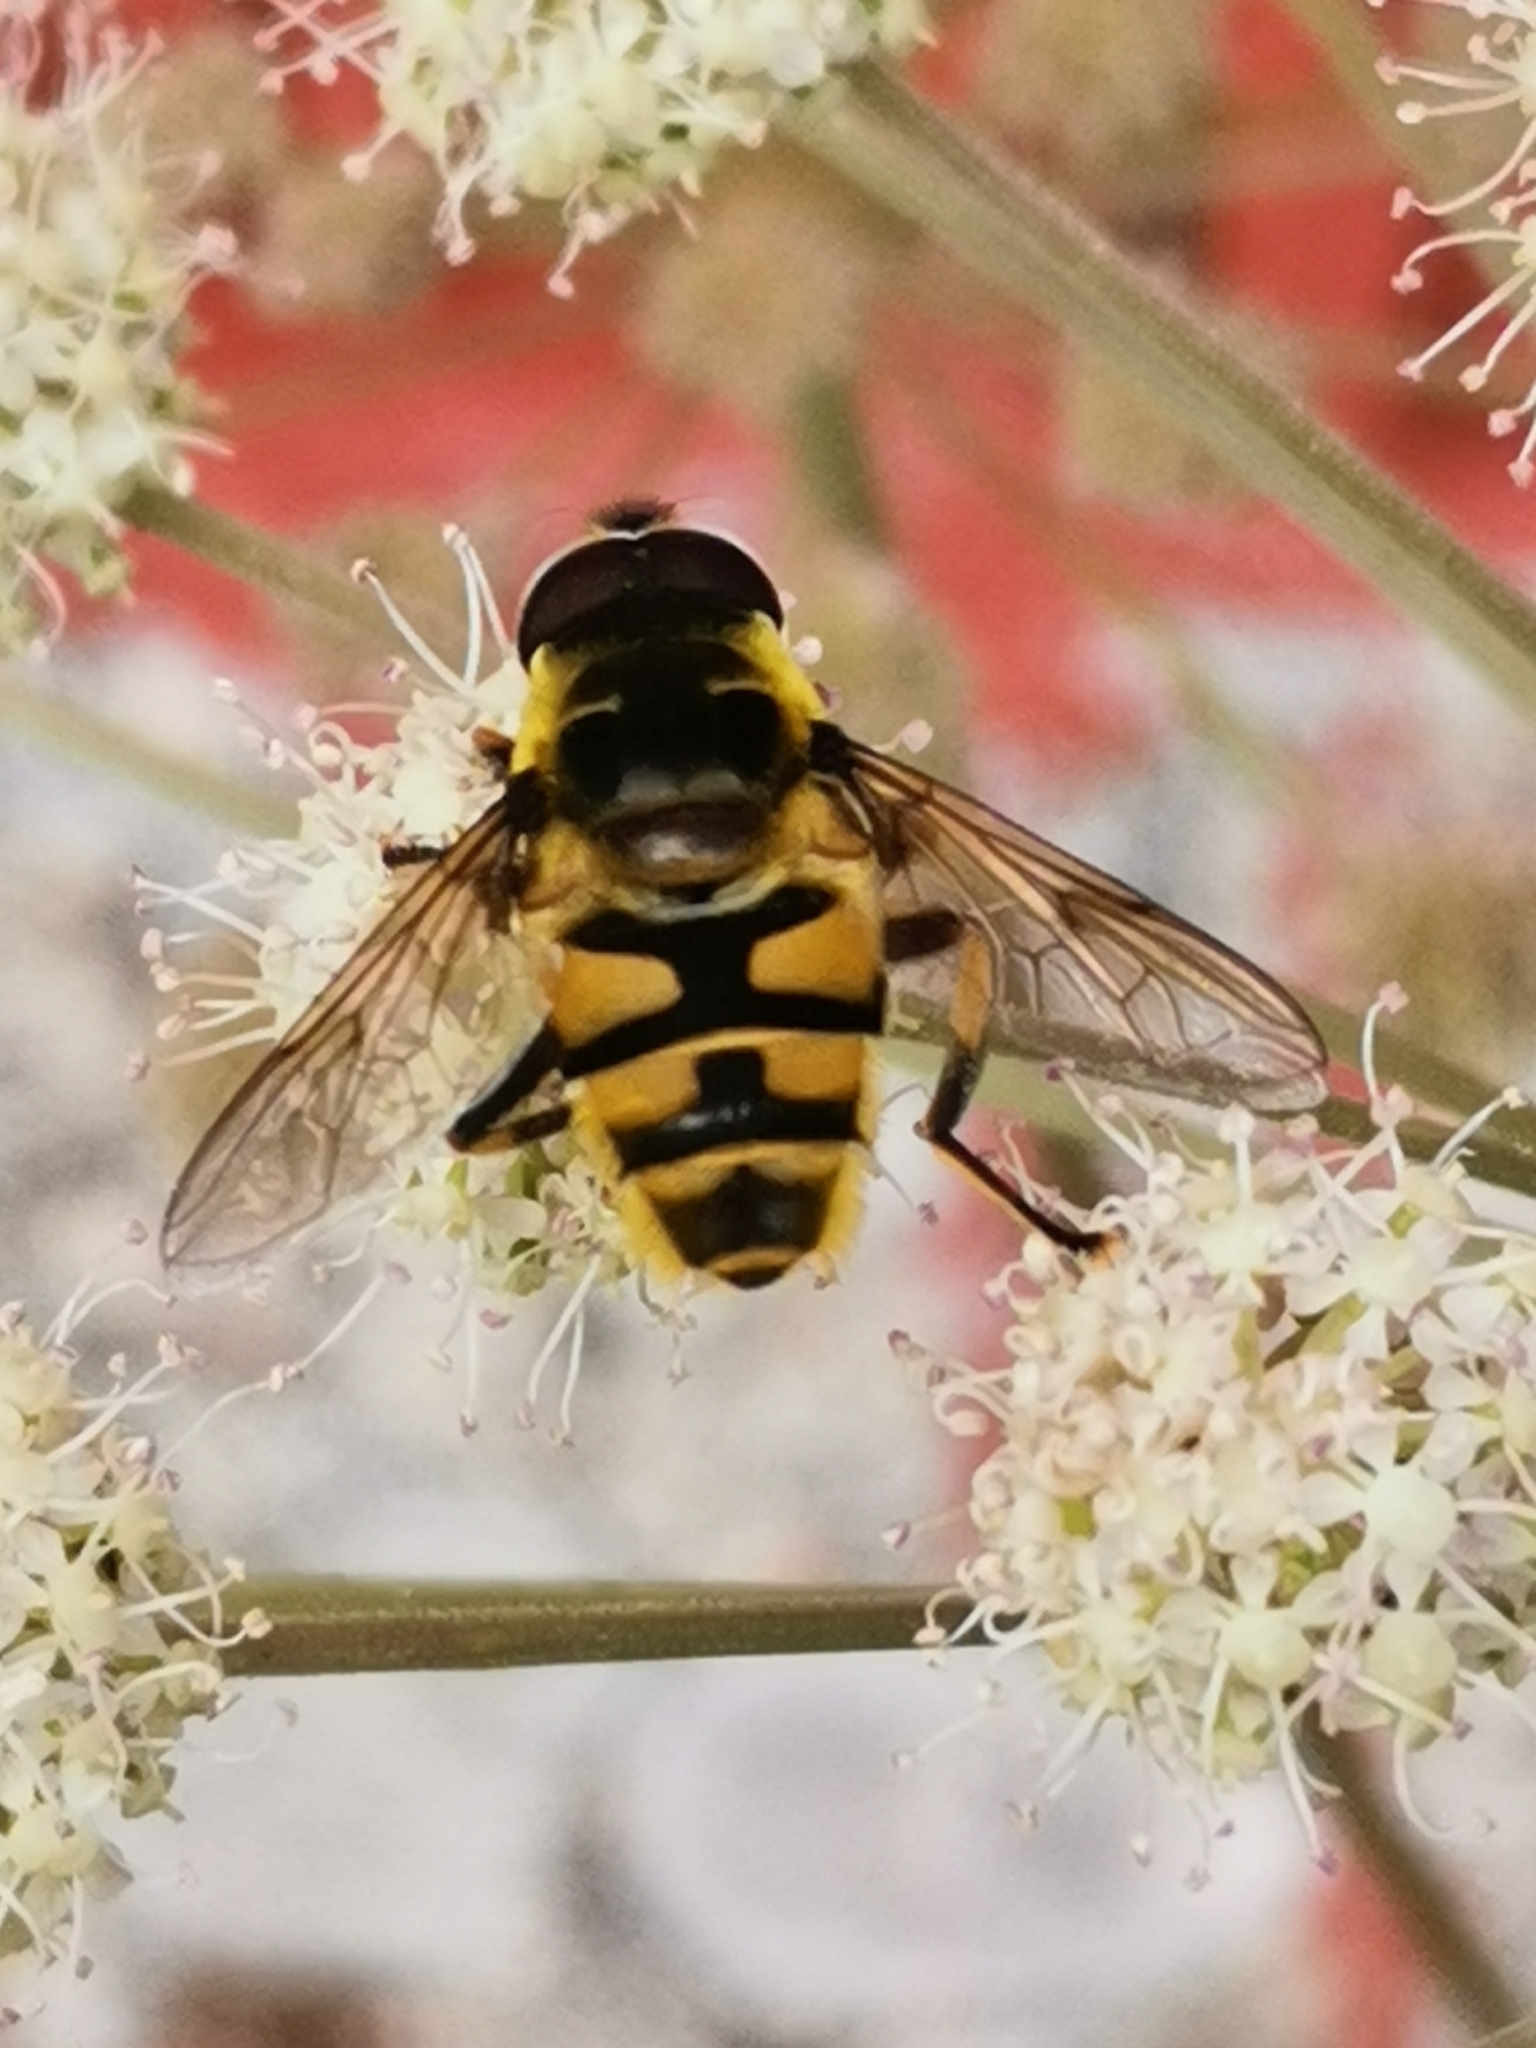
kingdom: Animalia
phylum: Arthropoda
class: Insecta
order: Diptera
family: Syrphidae
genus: Myathropa
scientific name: Myathropa florea
